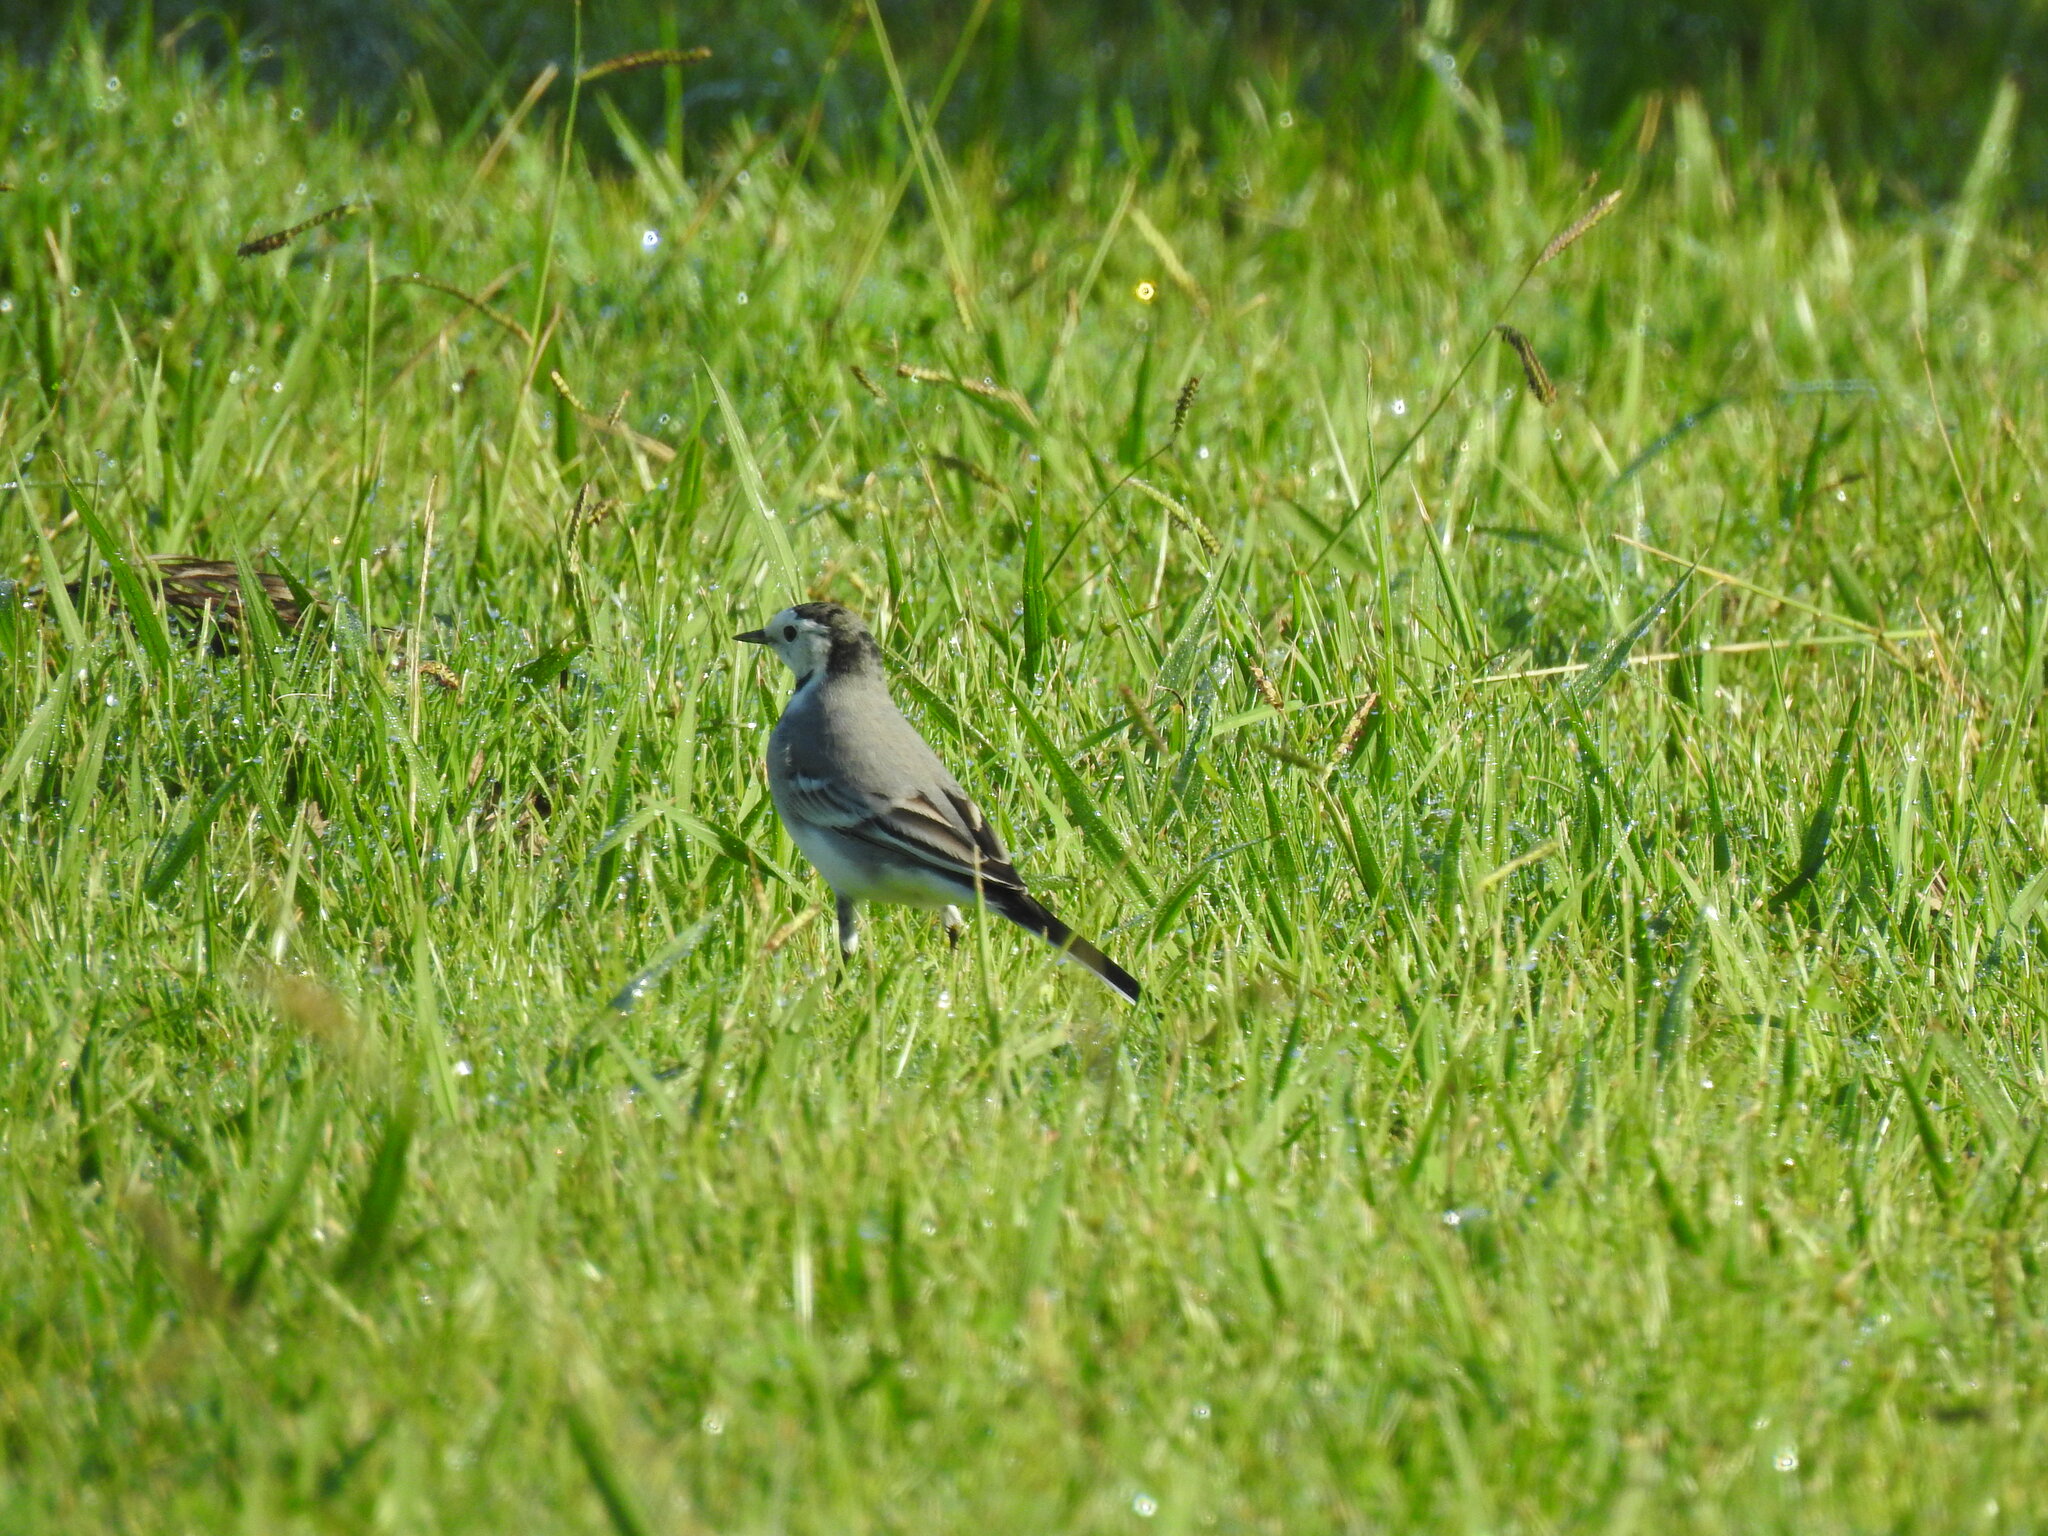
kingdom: Animalia
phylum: Chordata
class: Aves
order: Passeriformes
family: Motacillidae
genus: Motacilla
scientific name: Motacilla alba
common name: White wagtail
